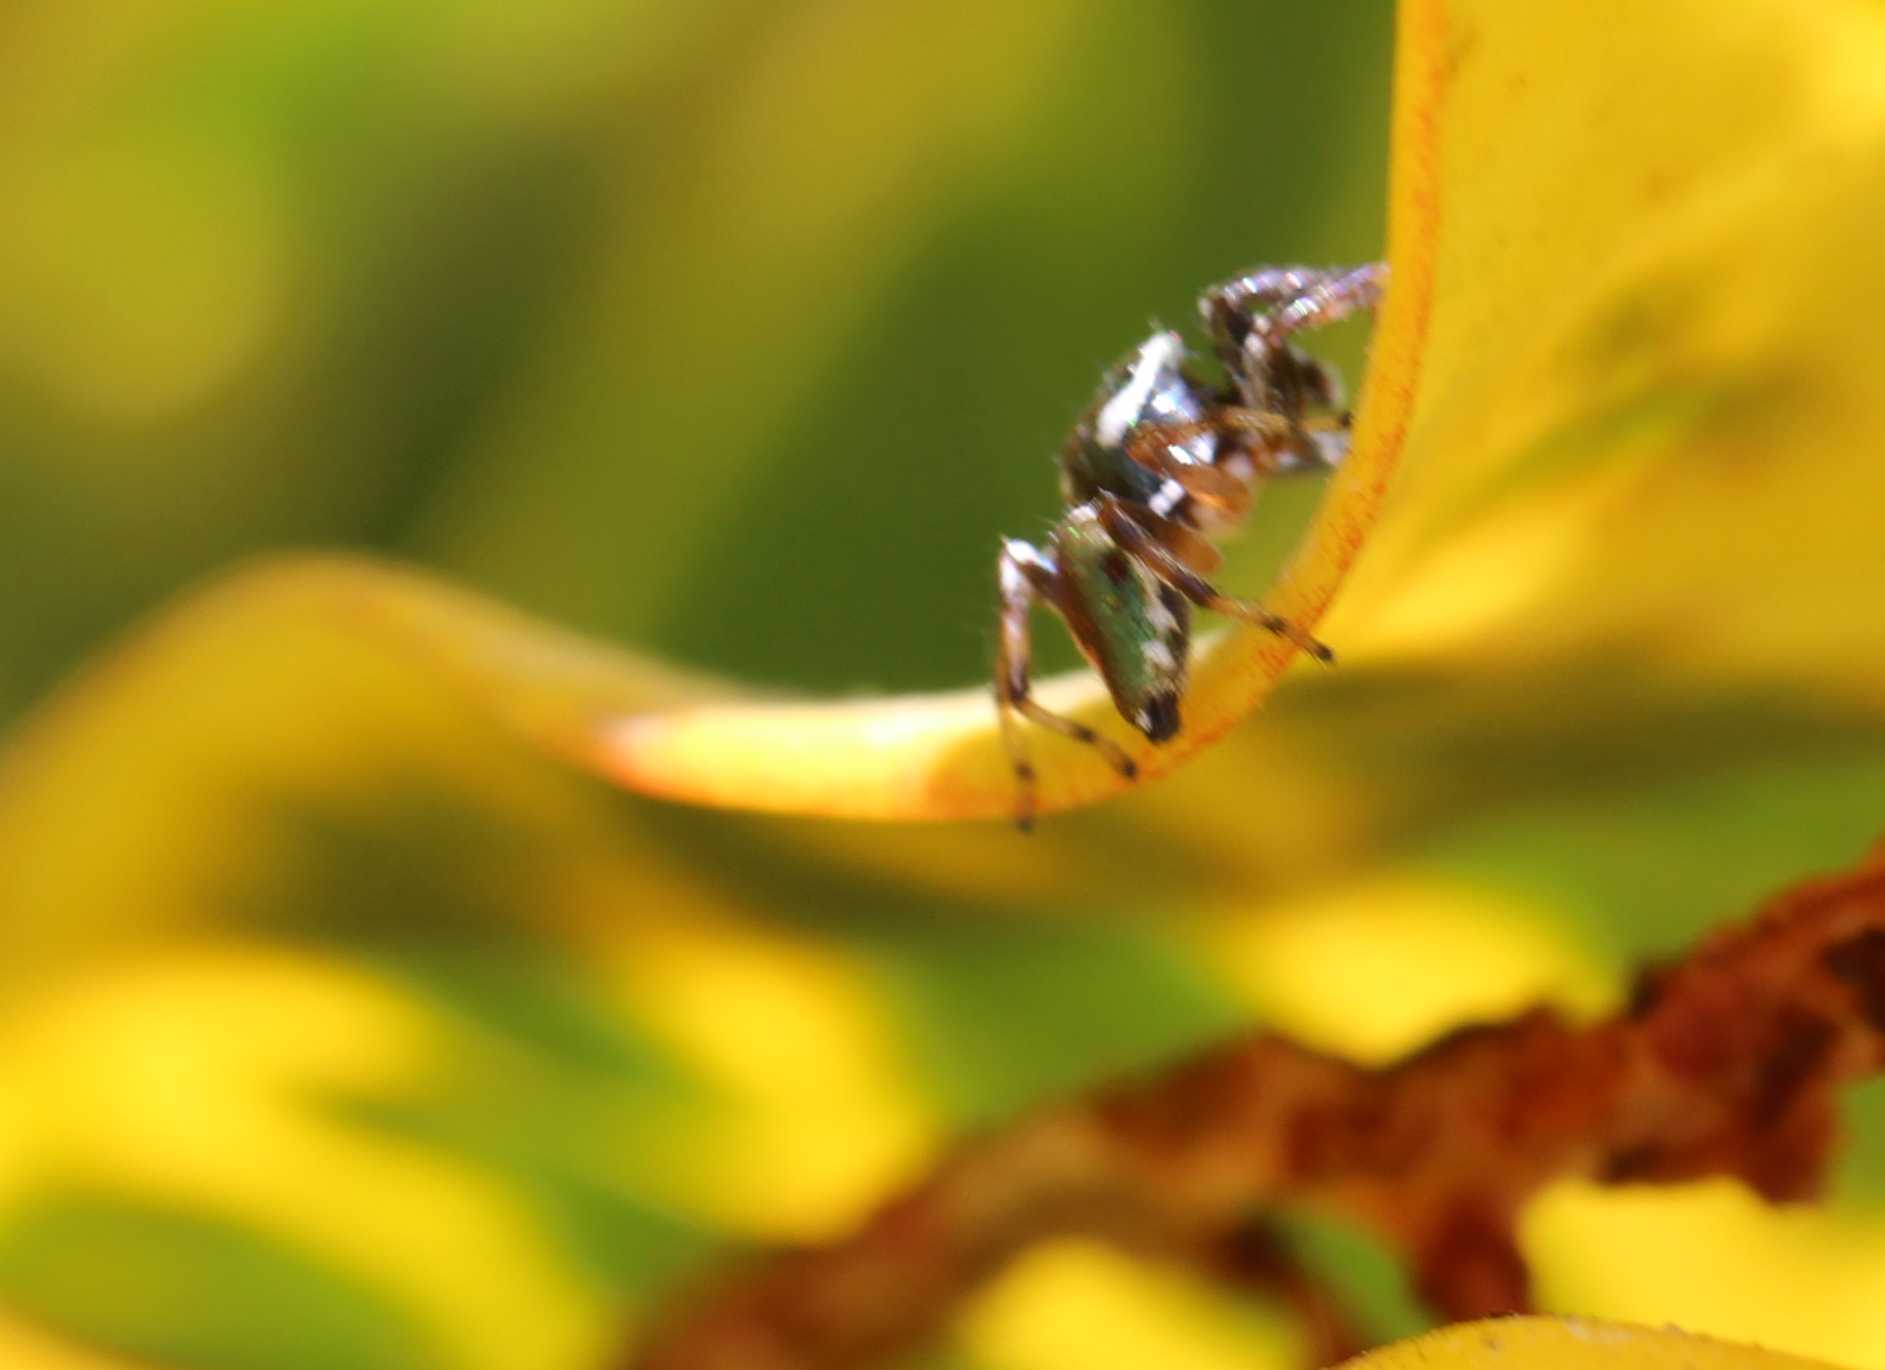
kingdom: Animalia
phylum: Arthropoda
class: Arachnida
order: Araneae
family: Salticidae
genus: Messua
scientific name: Messua limbata
